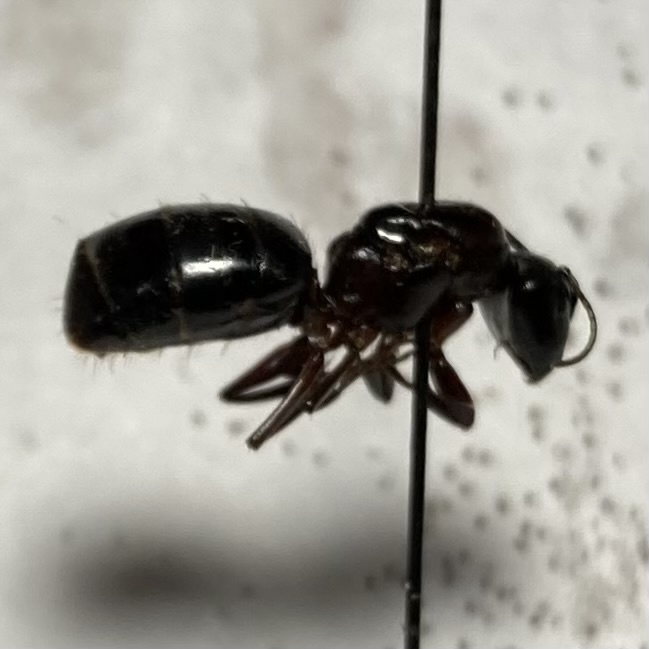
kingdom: Animalia
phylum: Arthropoda
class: Insecta
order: Hymenoptera
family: Formicidae
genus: Camponotus
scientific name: Camponotus novaeboracensis
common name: New york carpenter ant
